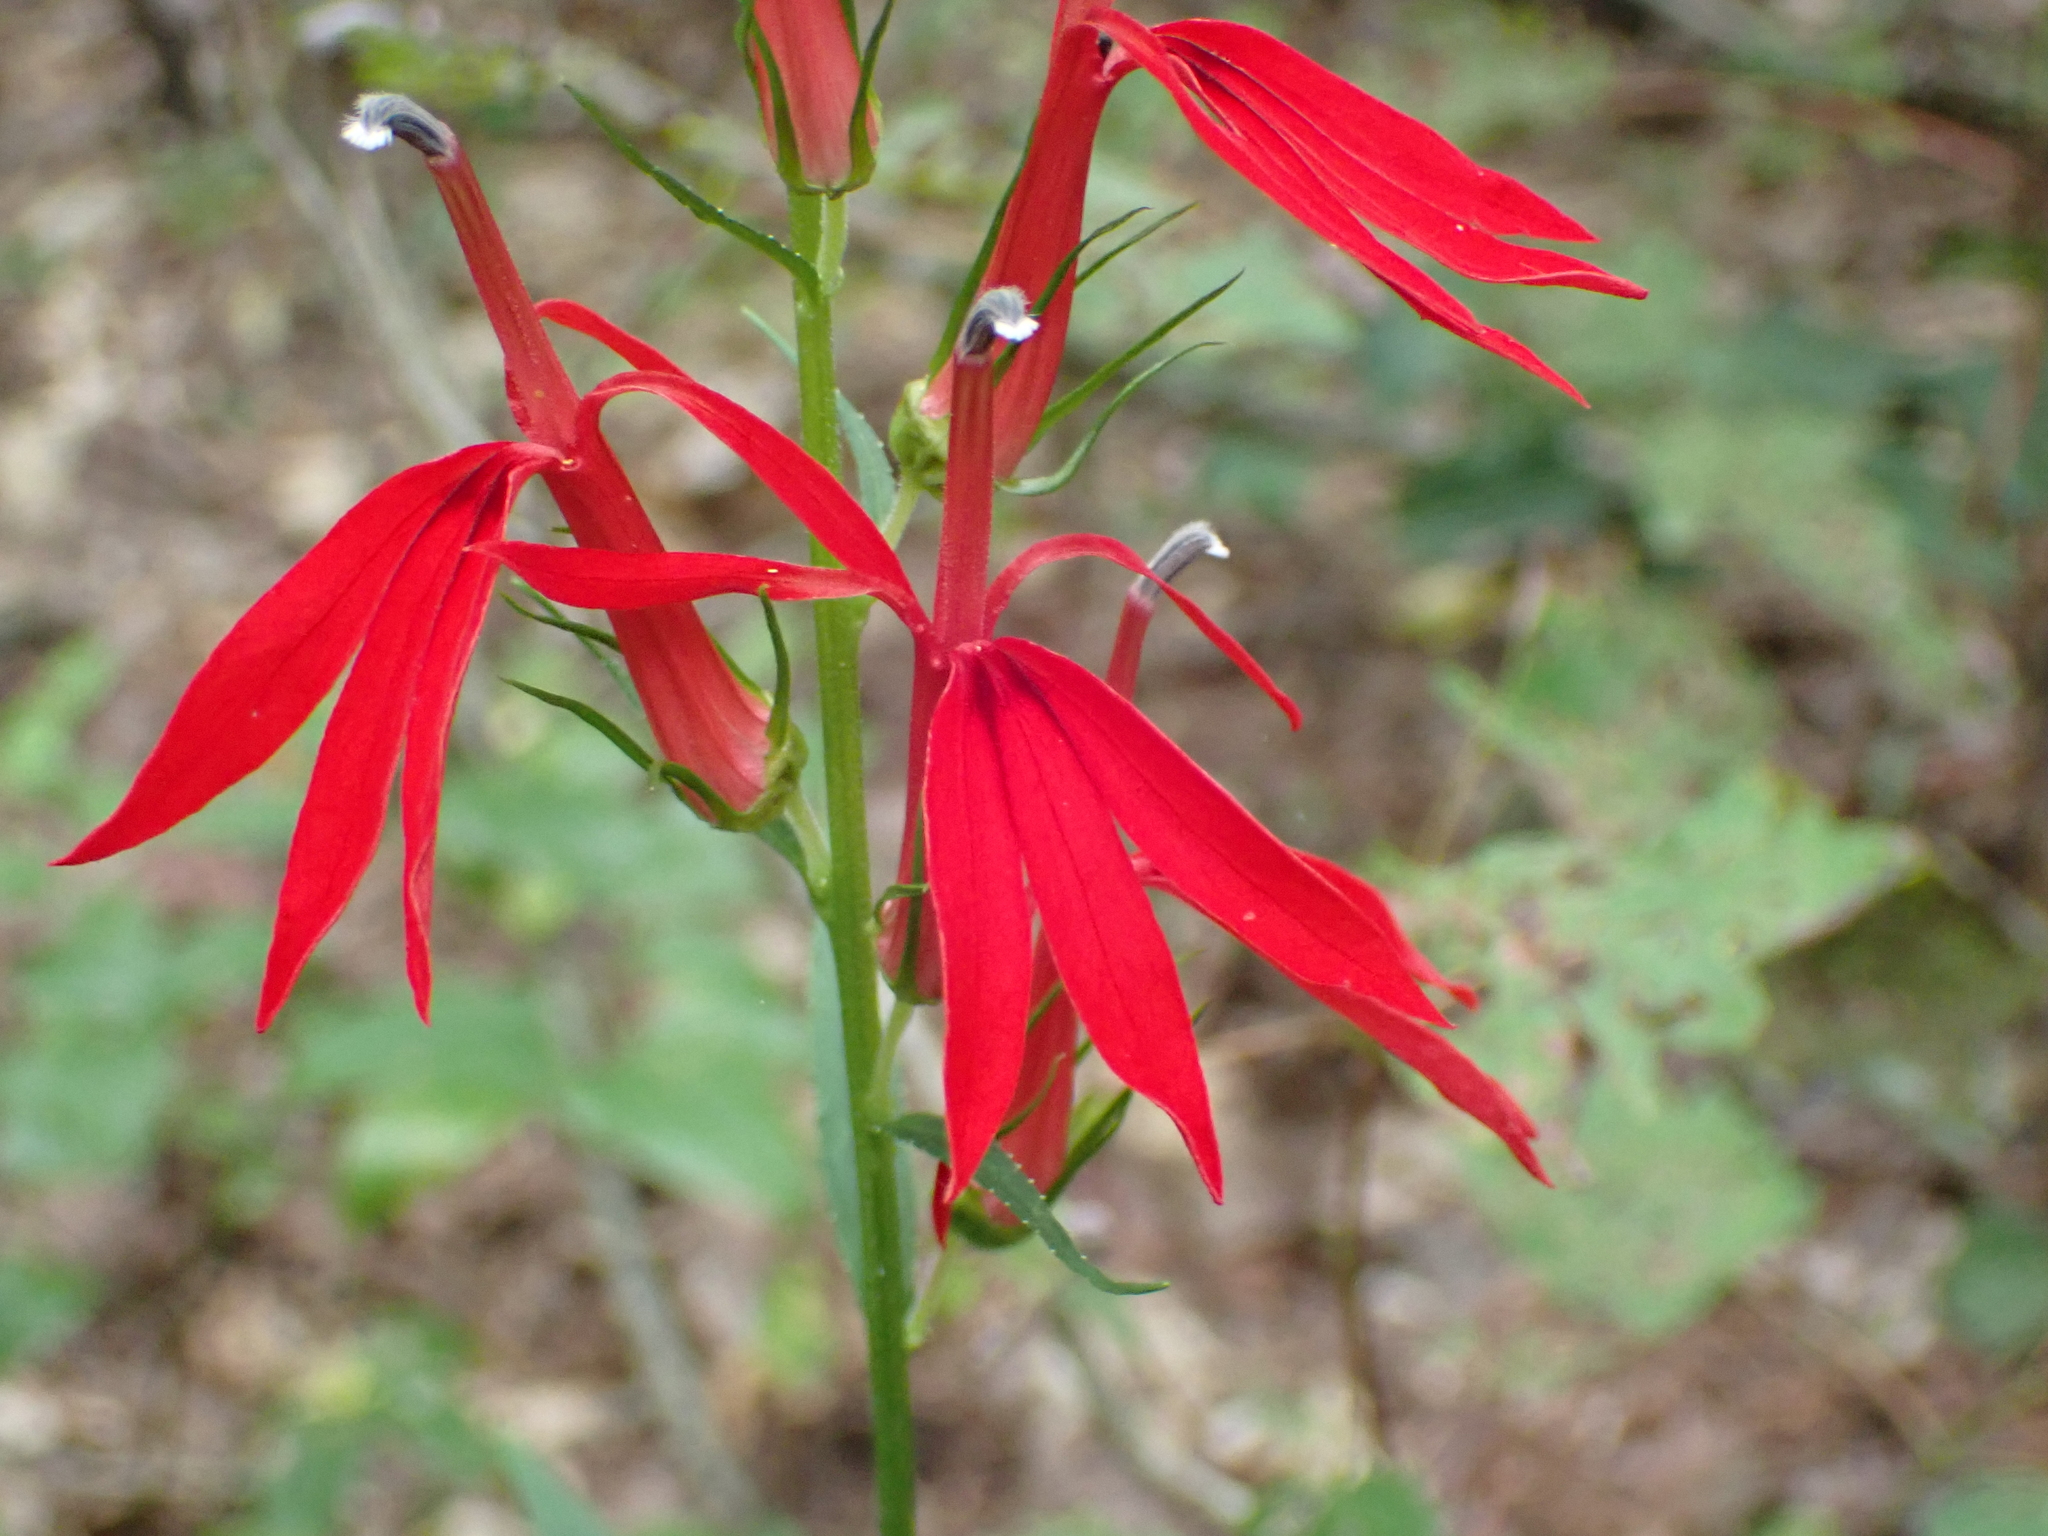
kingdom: Plantae
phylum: Tracheophyta
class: Magnoliopsida
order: Asterales
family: Campanulaceae
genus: Lobelia
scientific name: Lobelia cardinalis
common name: Cardinal flower
